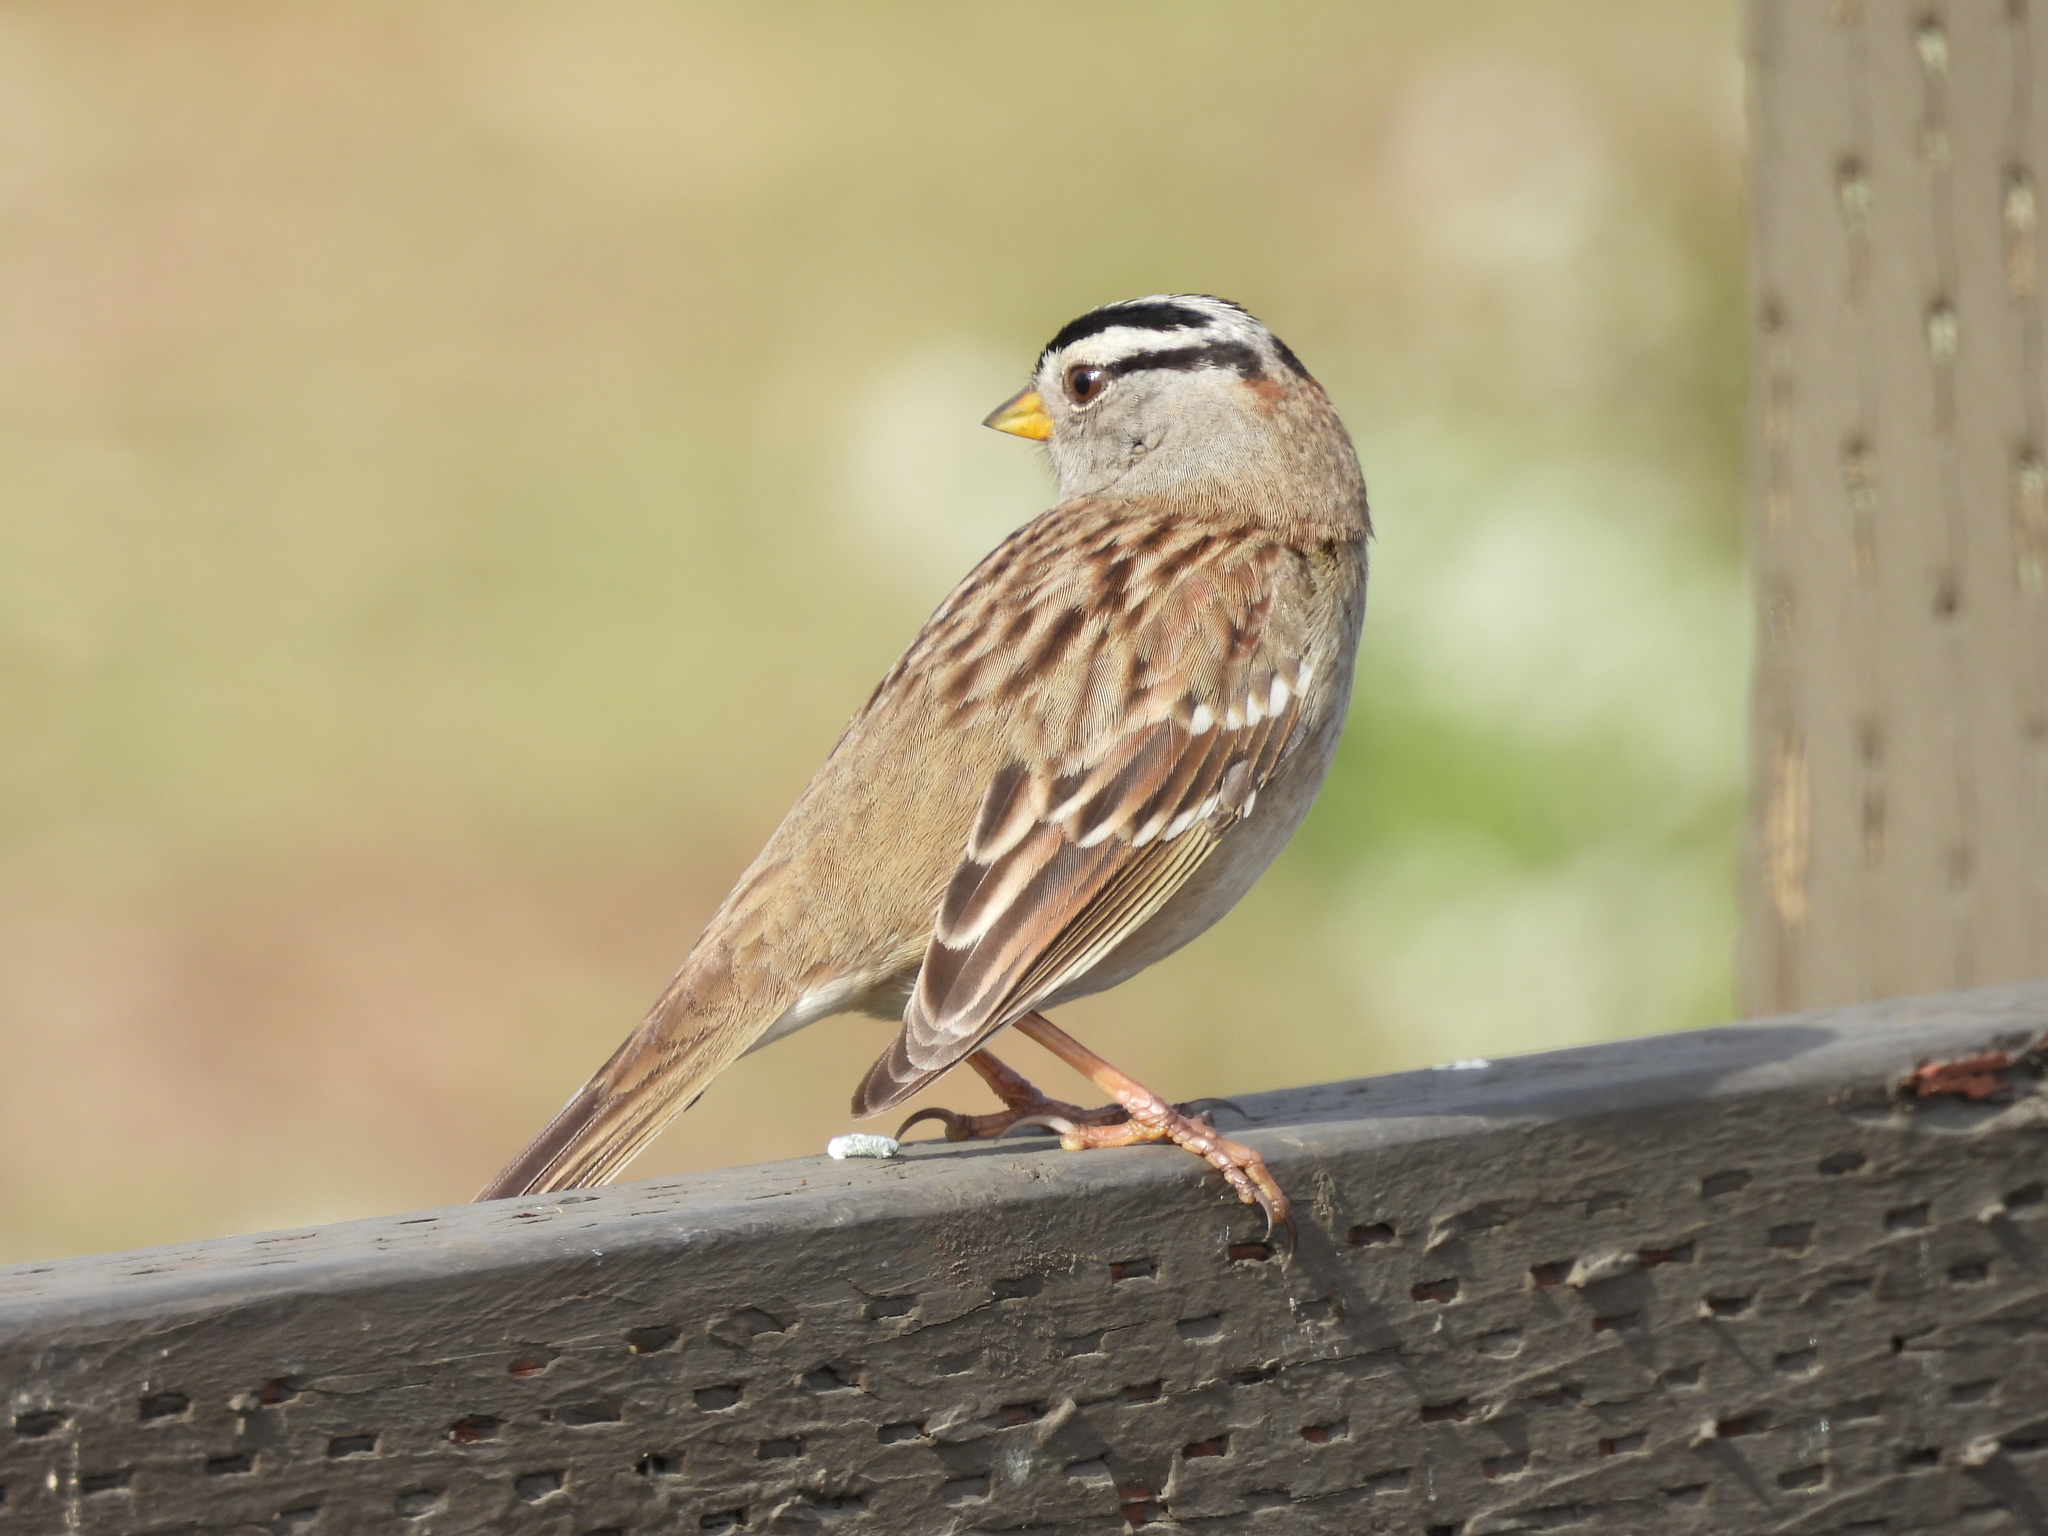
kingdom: Animalia
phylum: Chordata
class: Aves
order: Passeriformes
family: Passerellidae
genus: Zonotrichia
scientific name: Zonotrichia leucophrys
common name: White-crowned sparrow
